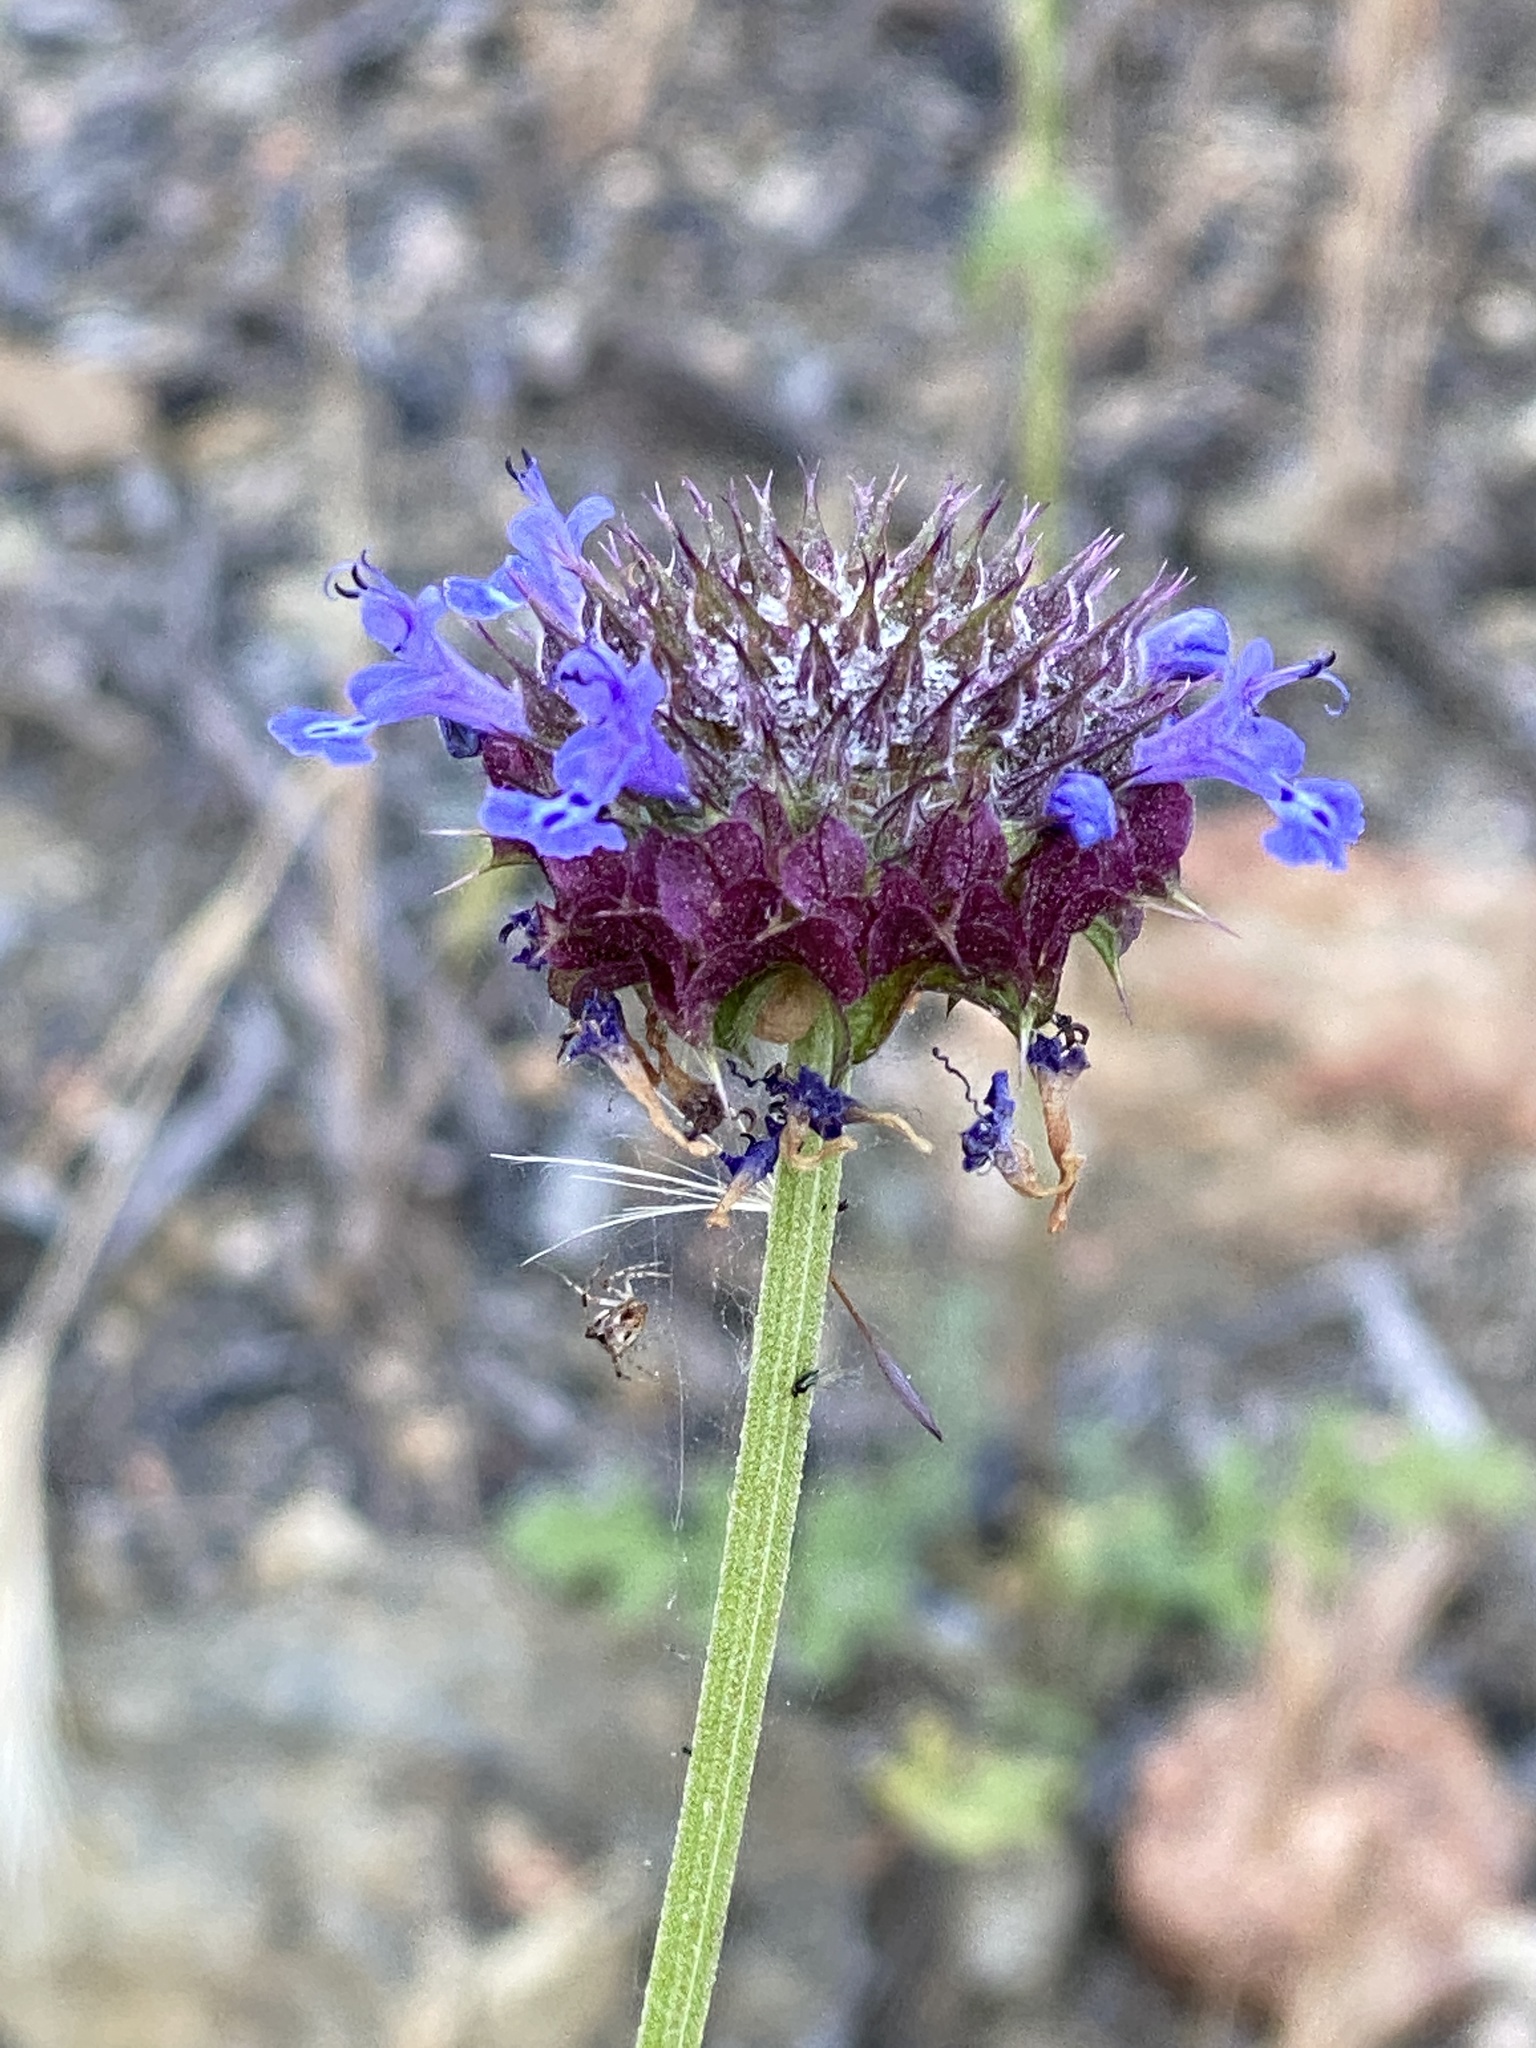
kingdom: Plantae
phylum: Tracheophyta
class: Magnoliopsida
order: Lamiales
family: Lamiaceae
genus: Salvia
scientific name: Salvia columbariae
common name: Chia
